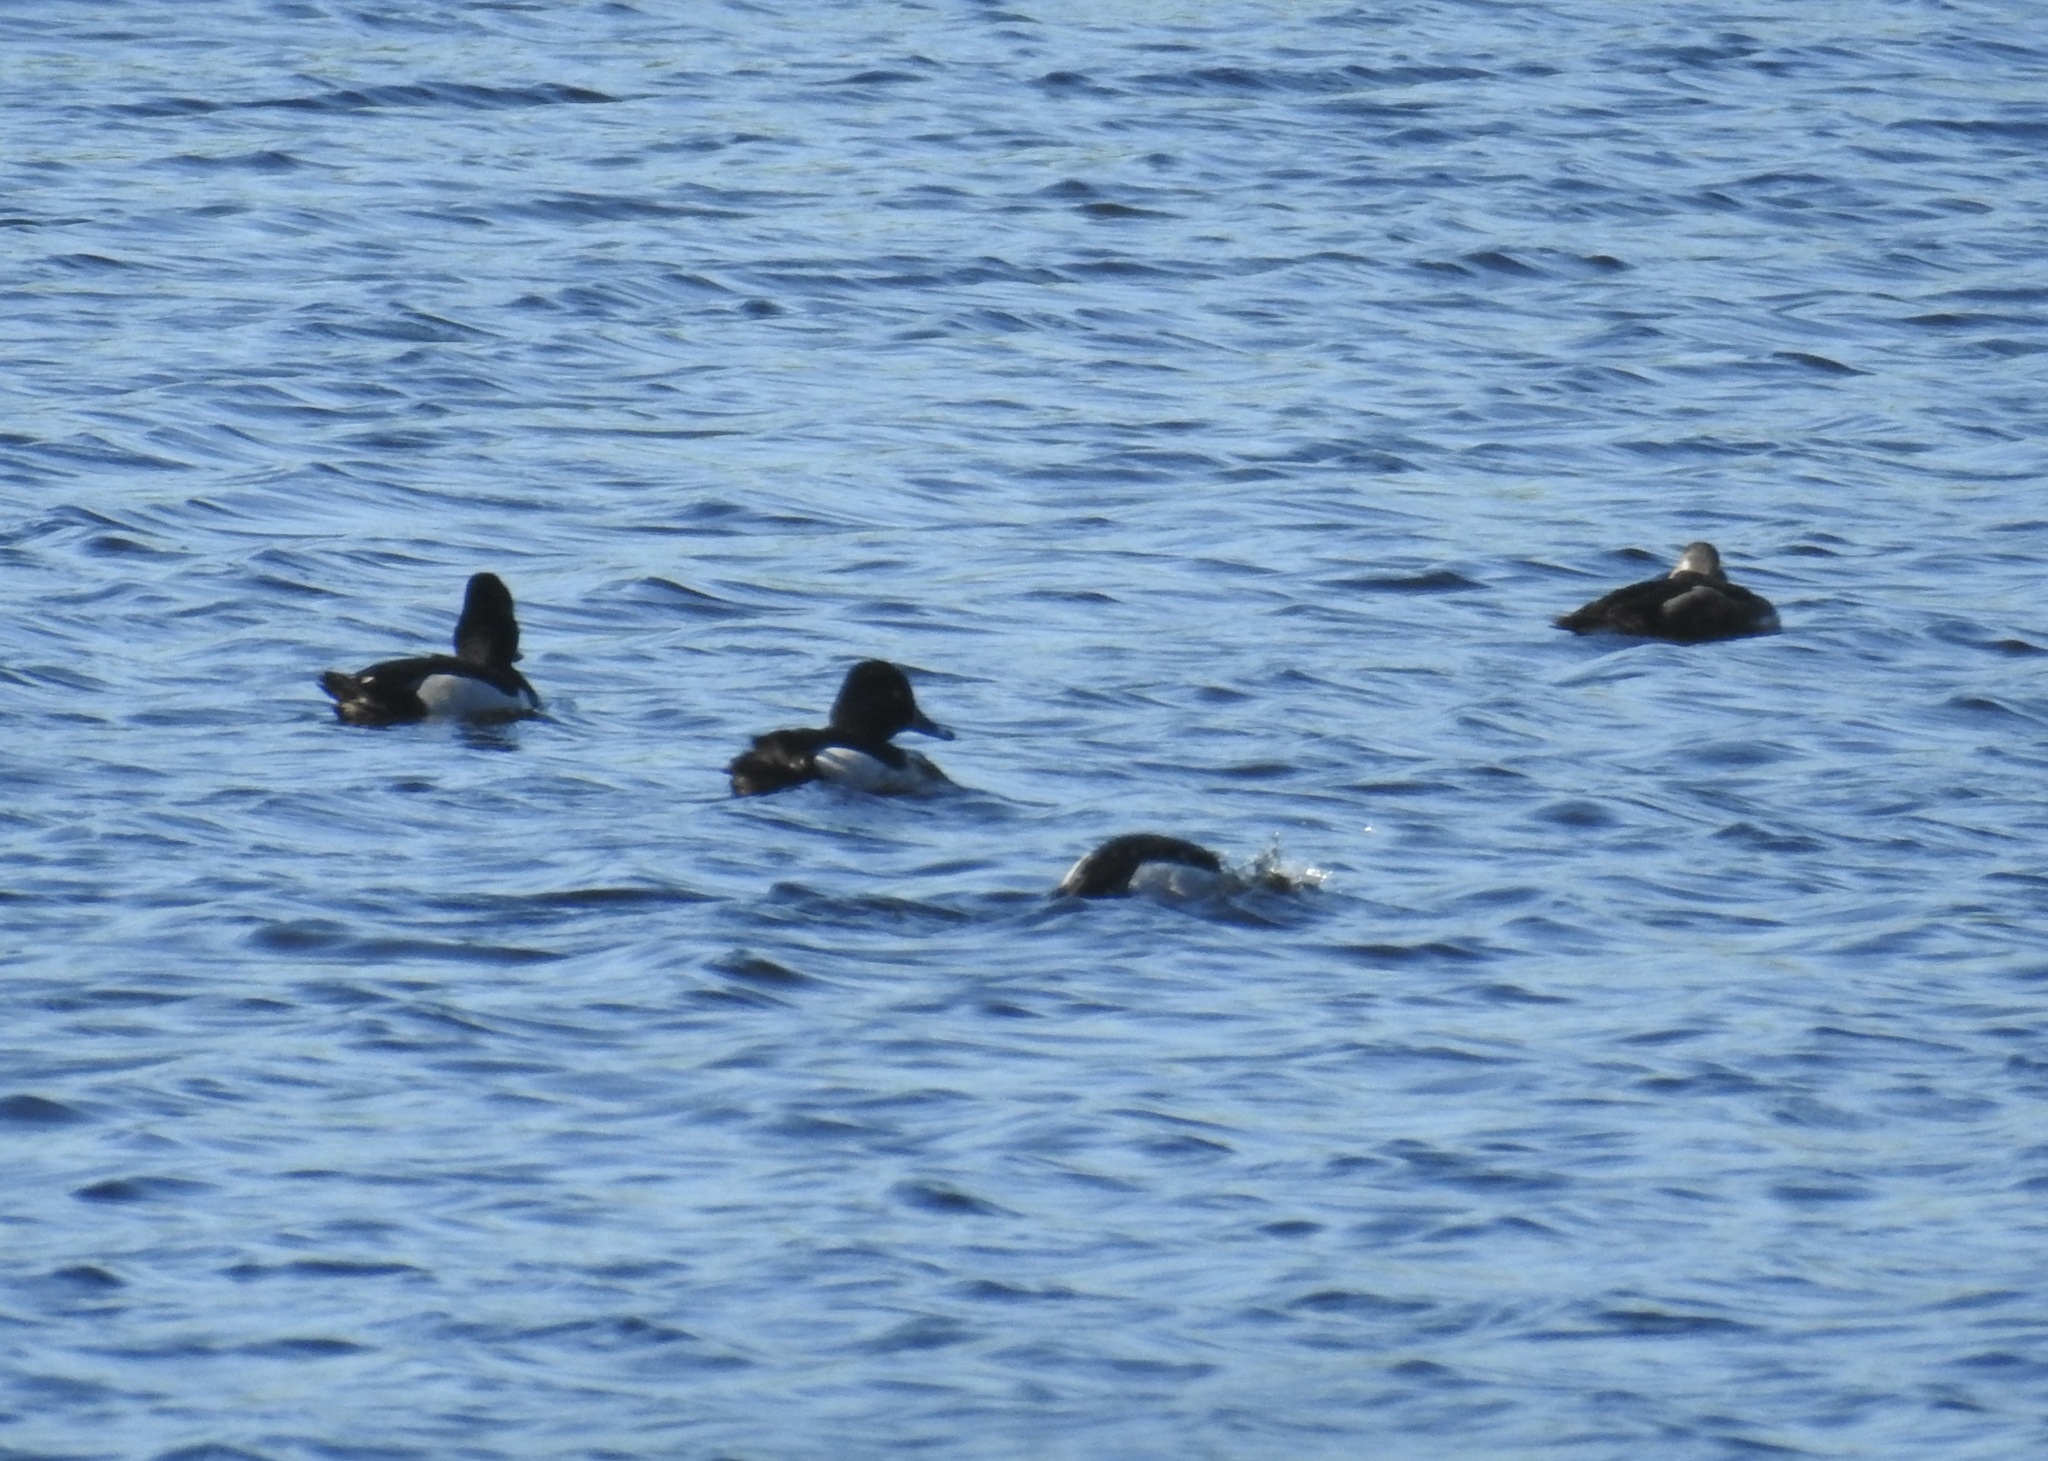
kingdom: Animalia
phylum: Chordata
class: Aves
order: Anseriformes
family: Anatidae
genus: Aythya
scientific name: Aythya collaris
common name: Ring-necked duck
